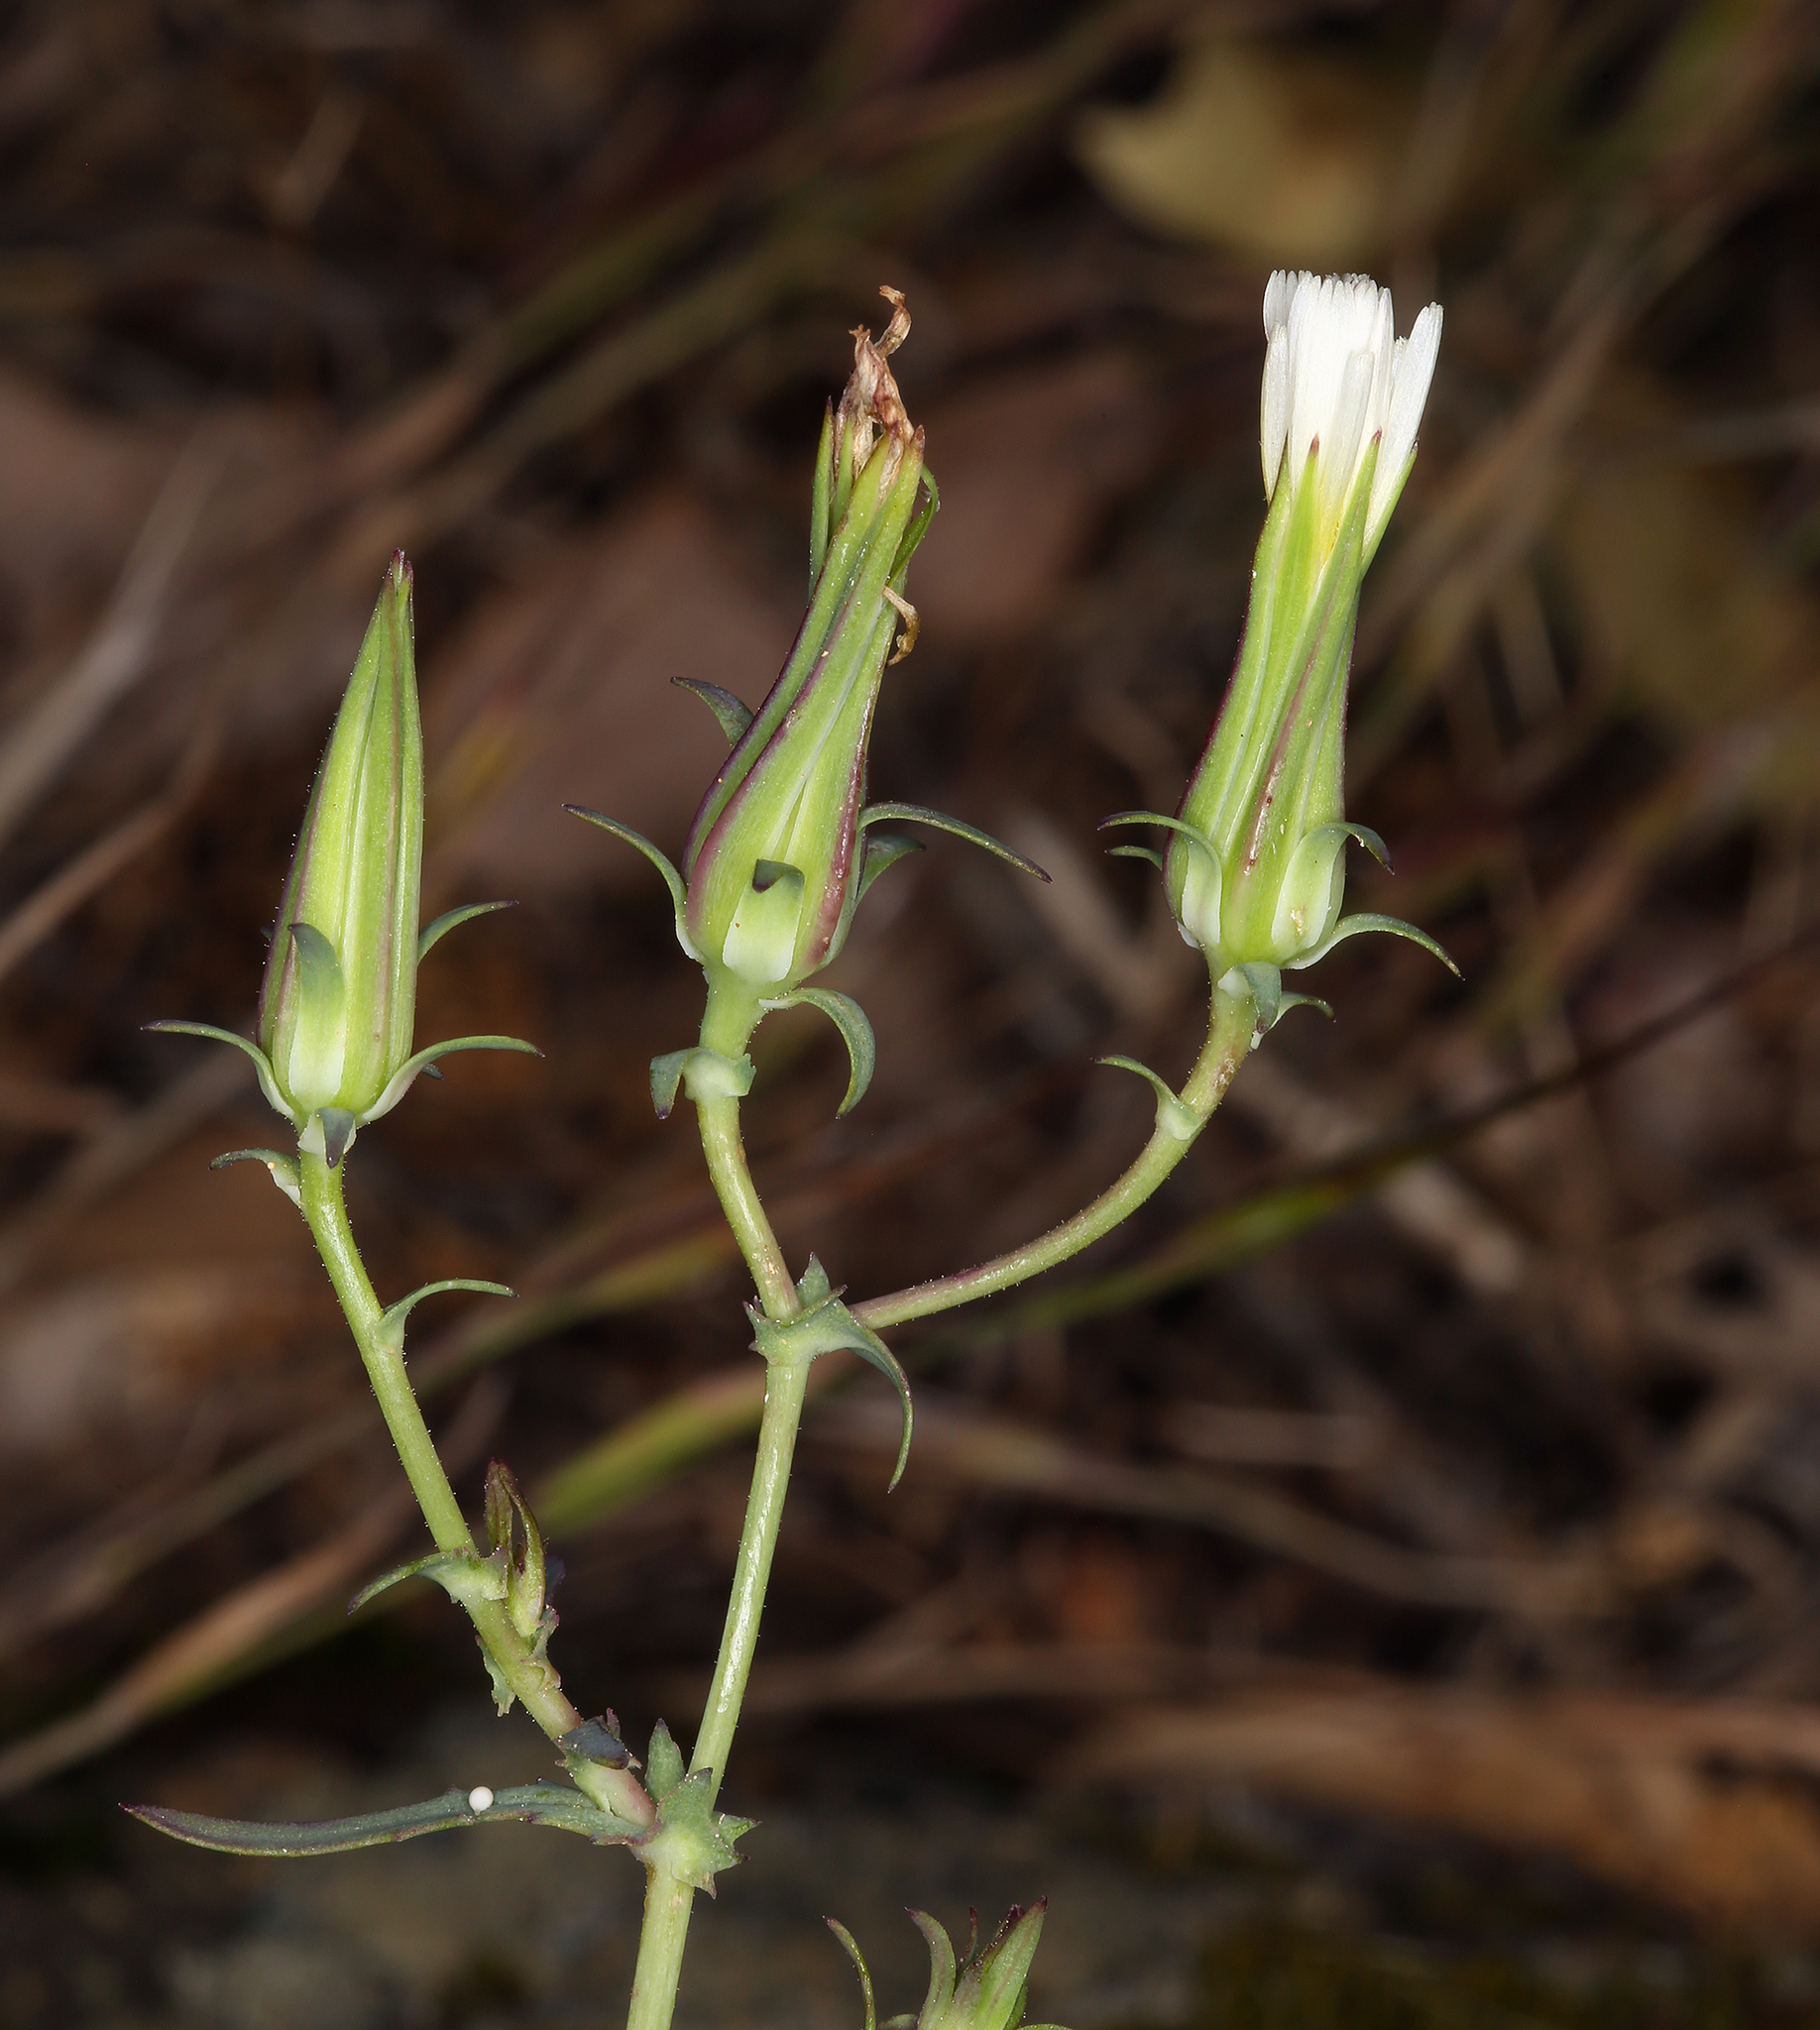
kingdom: Plantae
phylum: Tracheophyta
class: Magnoliopsida
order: Asterales
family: Asteraceae
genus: Rafinesquia
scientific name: Rafinesquia californica
